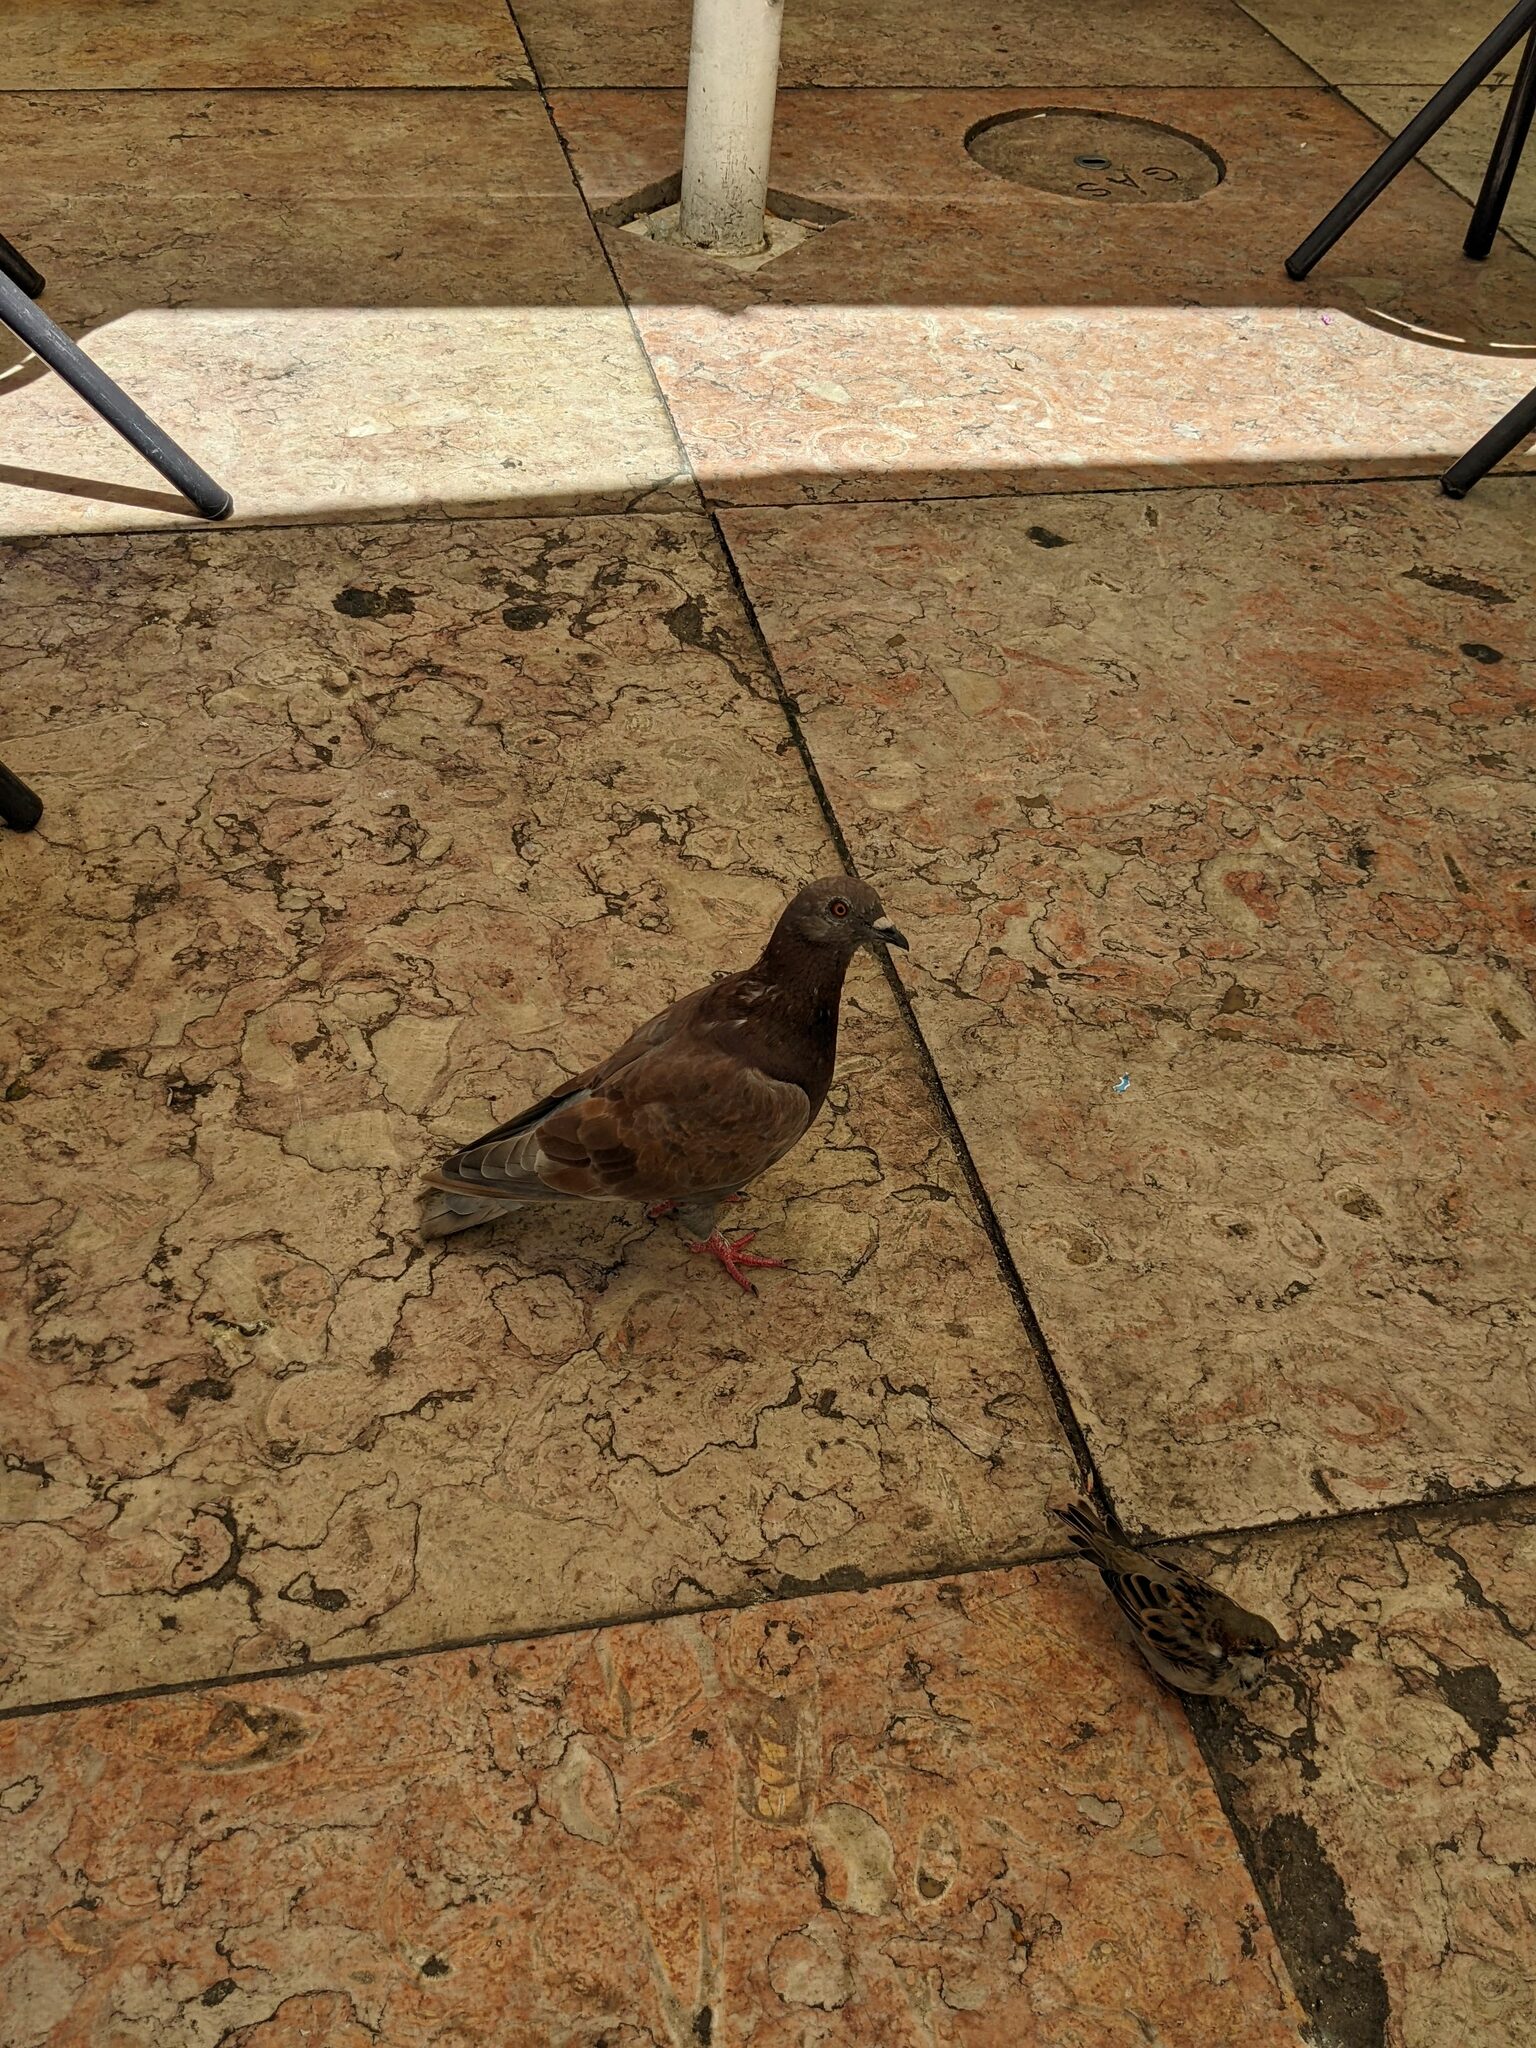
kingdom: Animalia
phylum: Chordata
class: Aves
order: Columbiformes
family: Columbidae
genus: Columba
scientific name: Columba livia
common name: Rock pigeon
